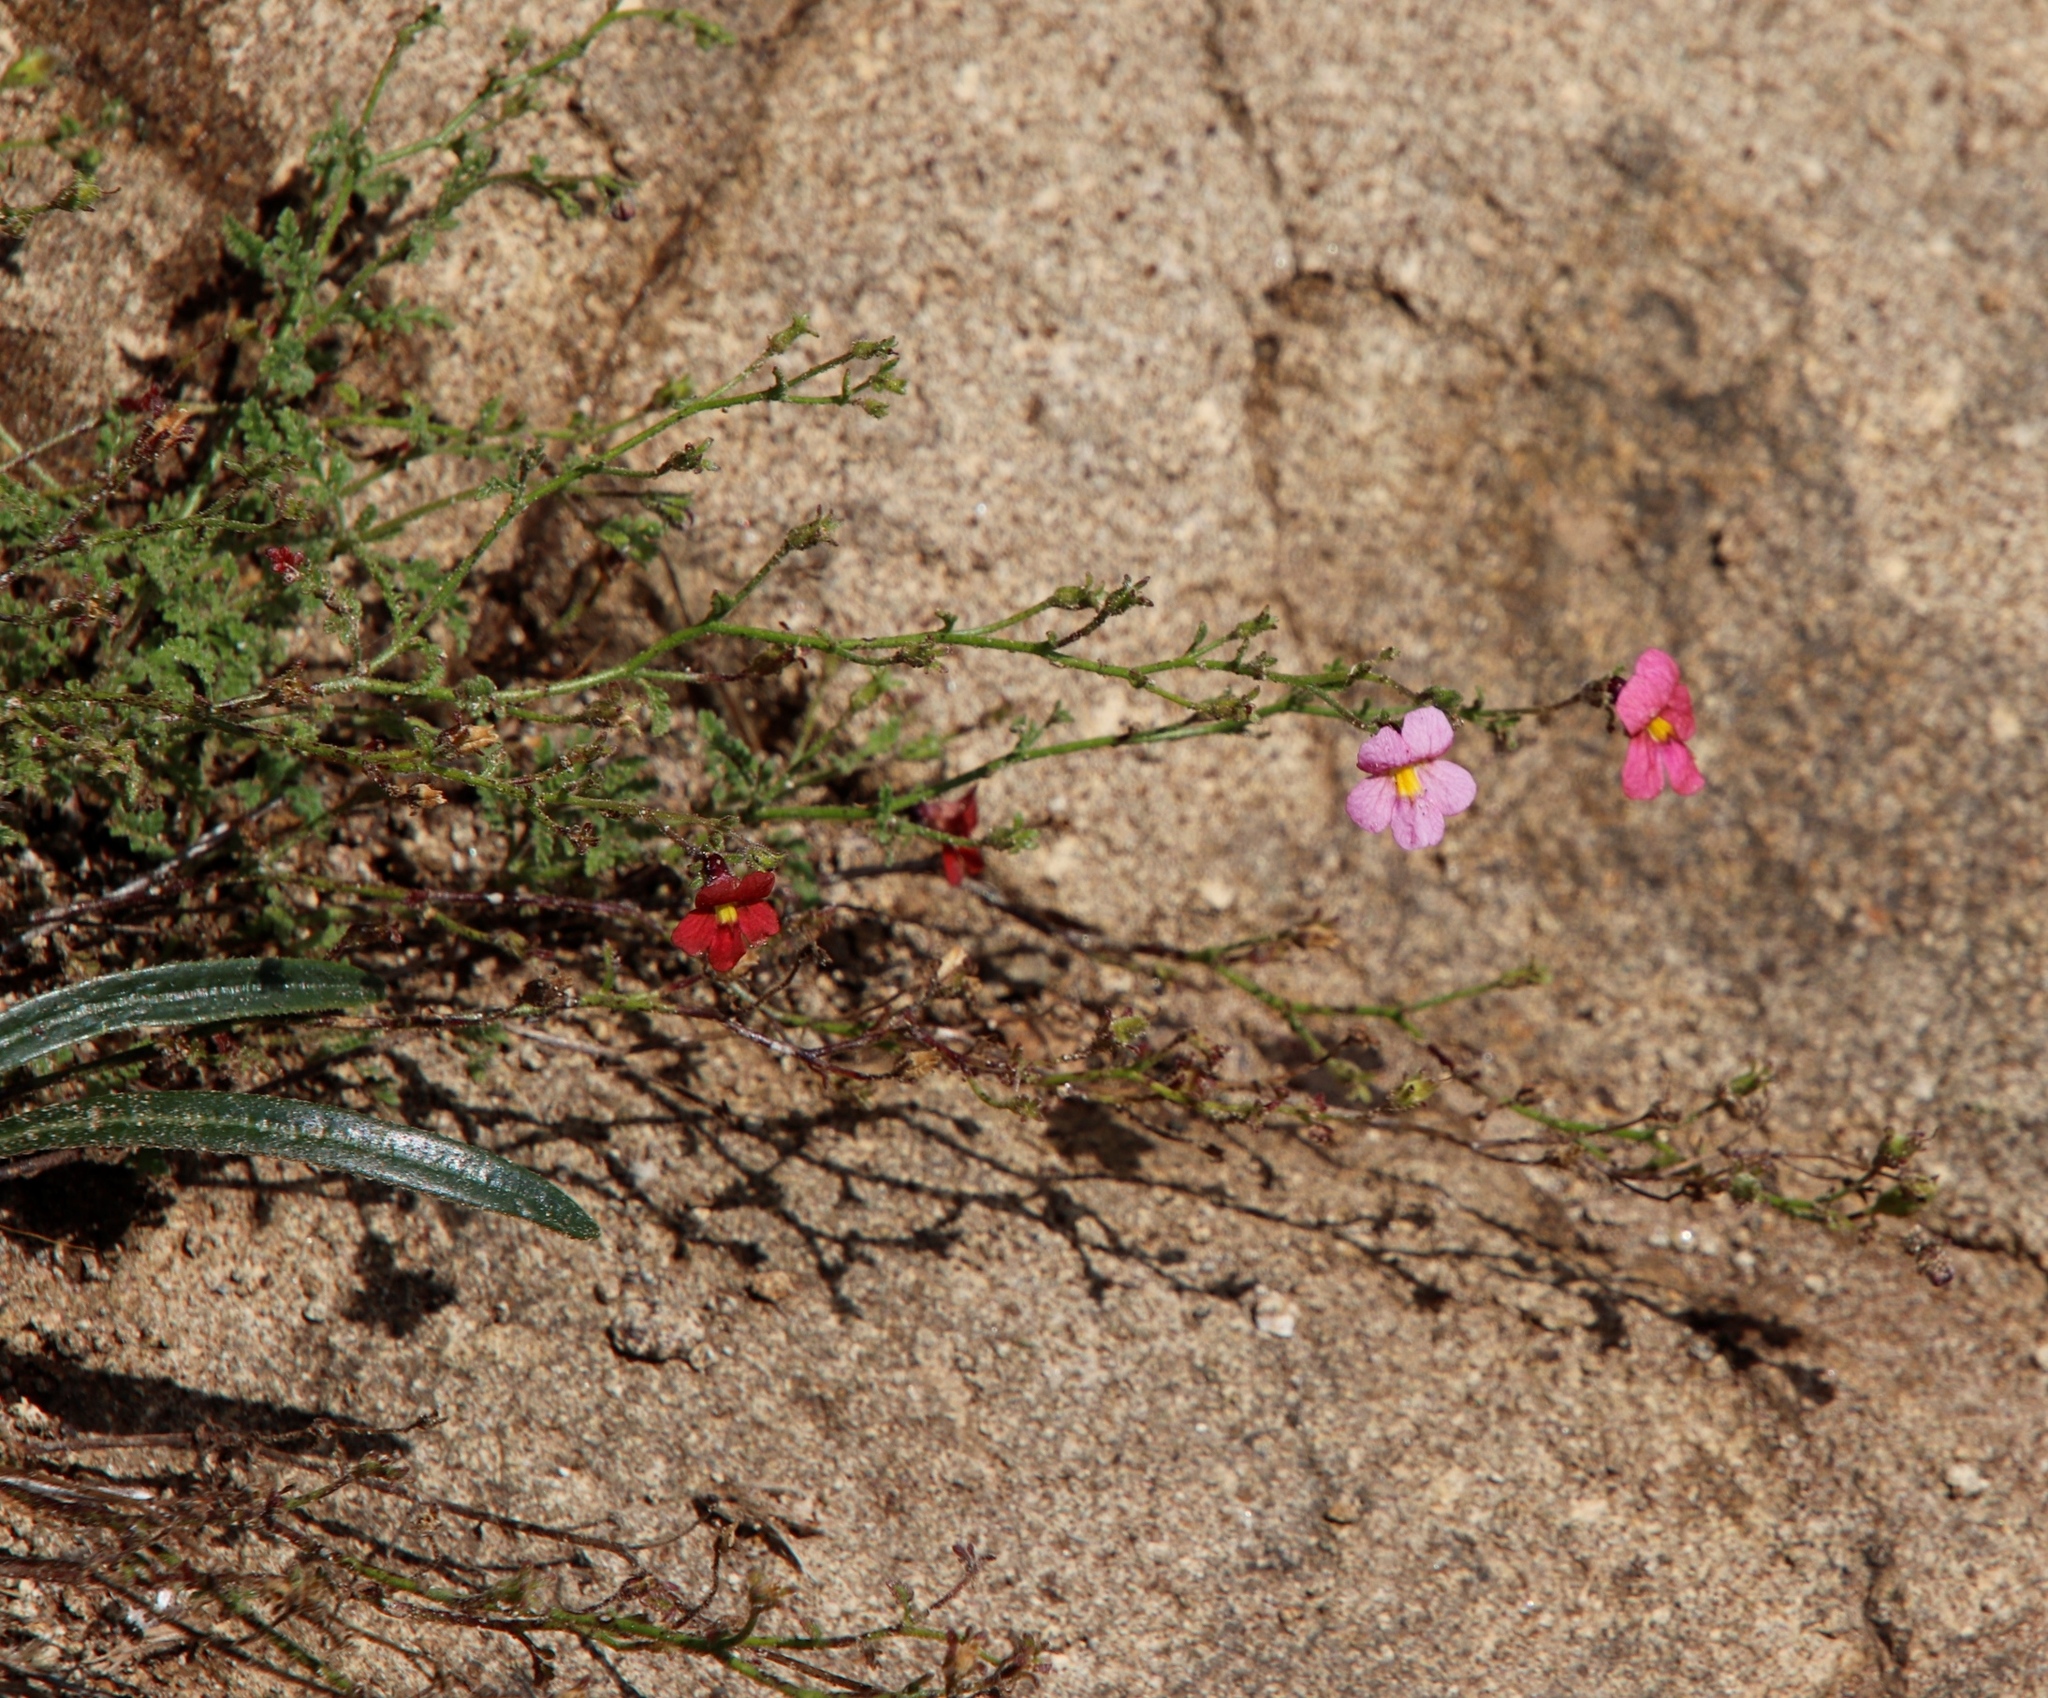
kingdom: Plantae
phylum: Tracheophyta
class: Magnoliopsida
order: Lamiales
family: Scrophulariaceae
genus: Jamesbrittenia
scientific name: Jamesbrittenia breviflora
